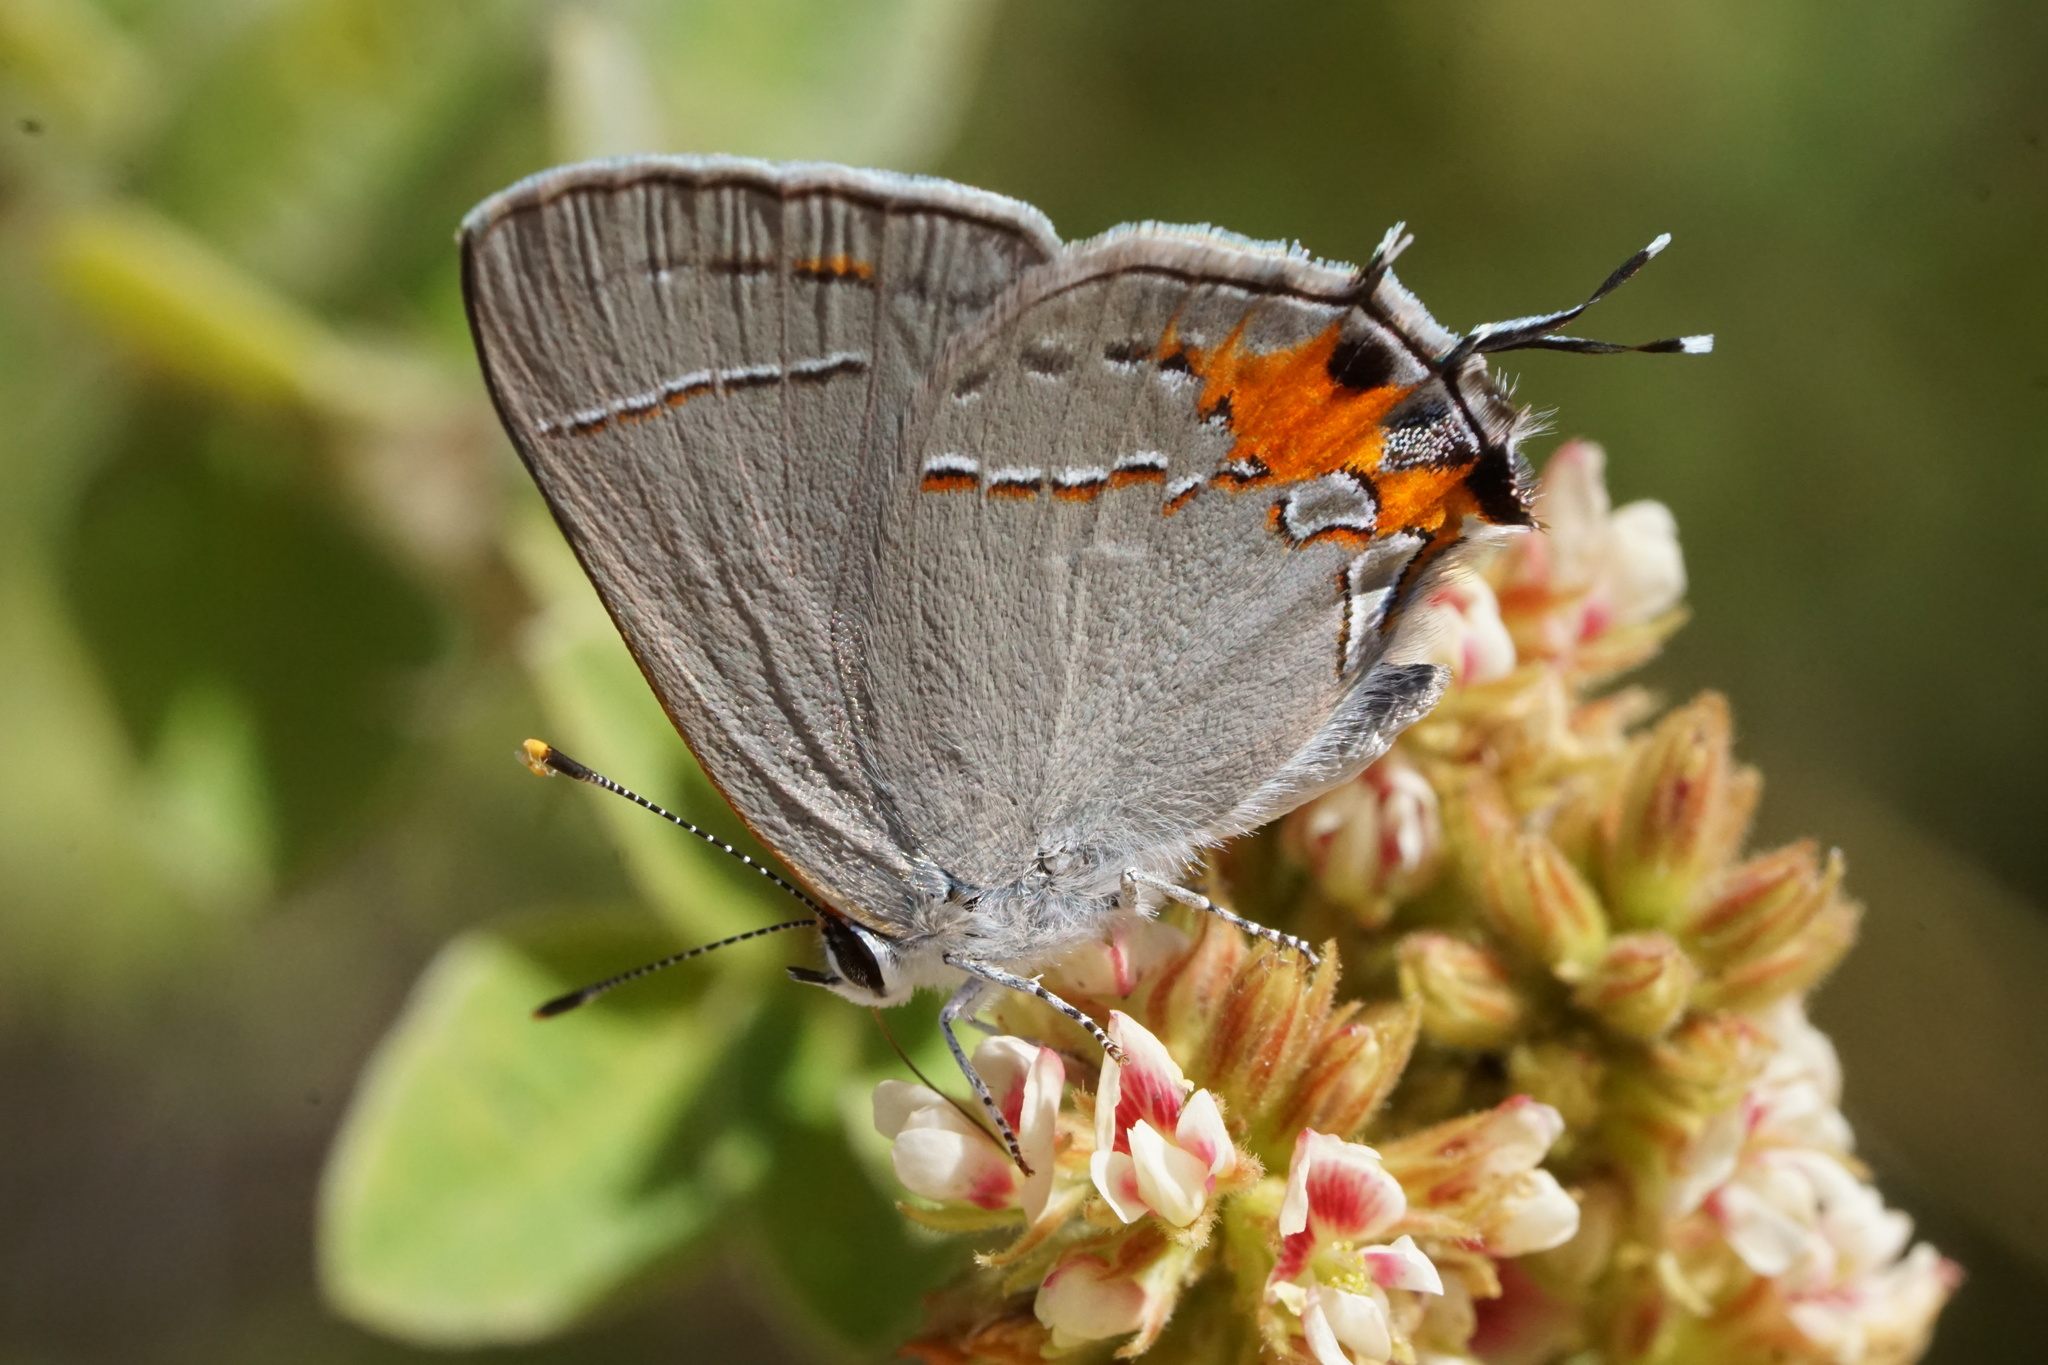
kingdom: Animalia
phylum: Arthropoda
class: Insecta
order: Lepidoptera
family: Lycaenidae
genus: Strymon
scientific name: Strymon melinus
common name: Gray hairstreak
